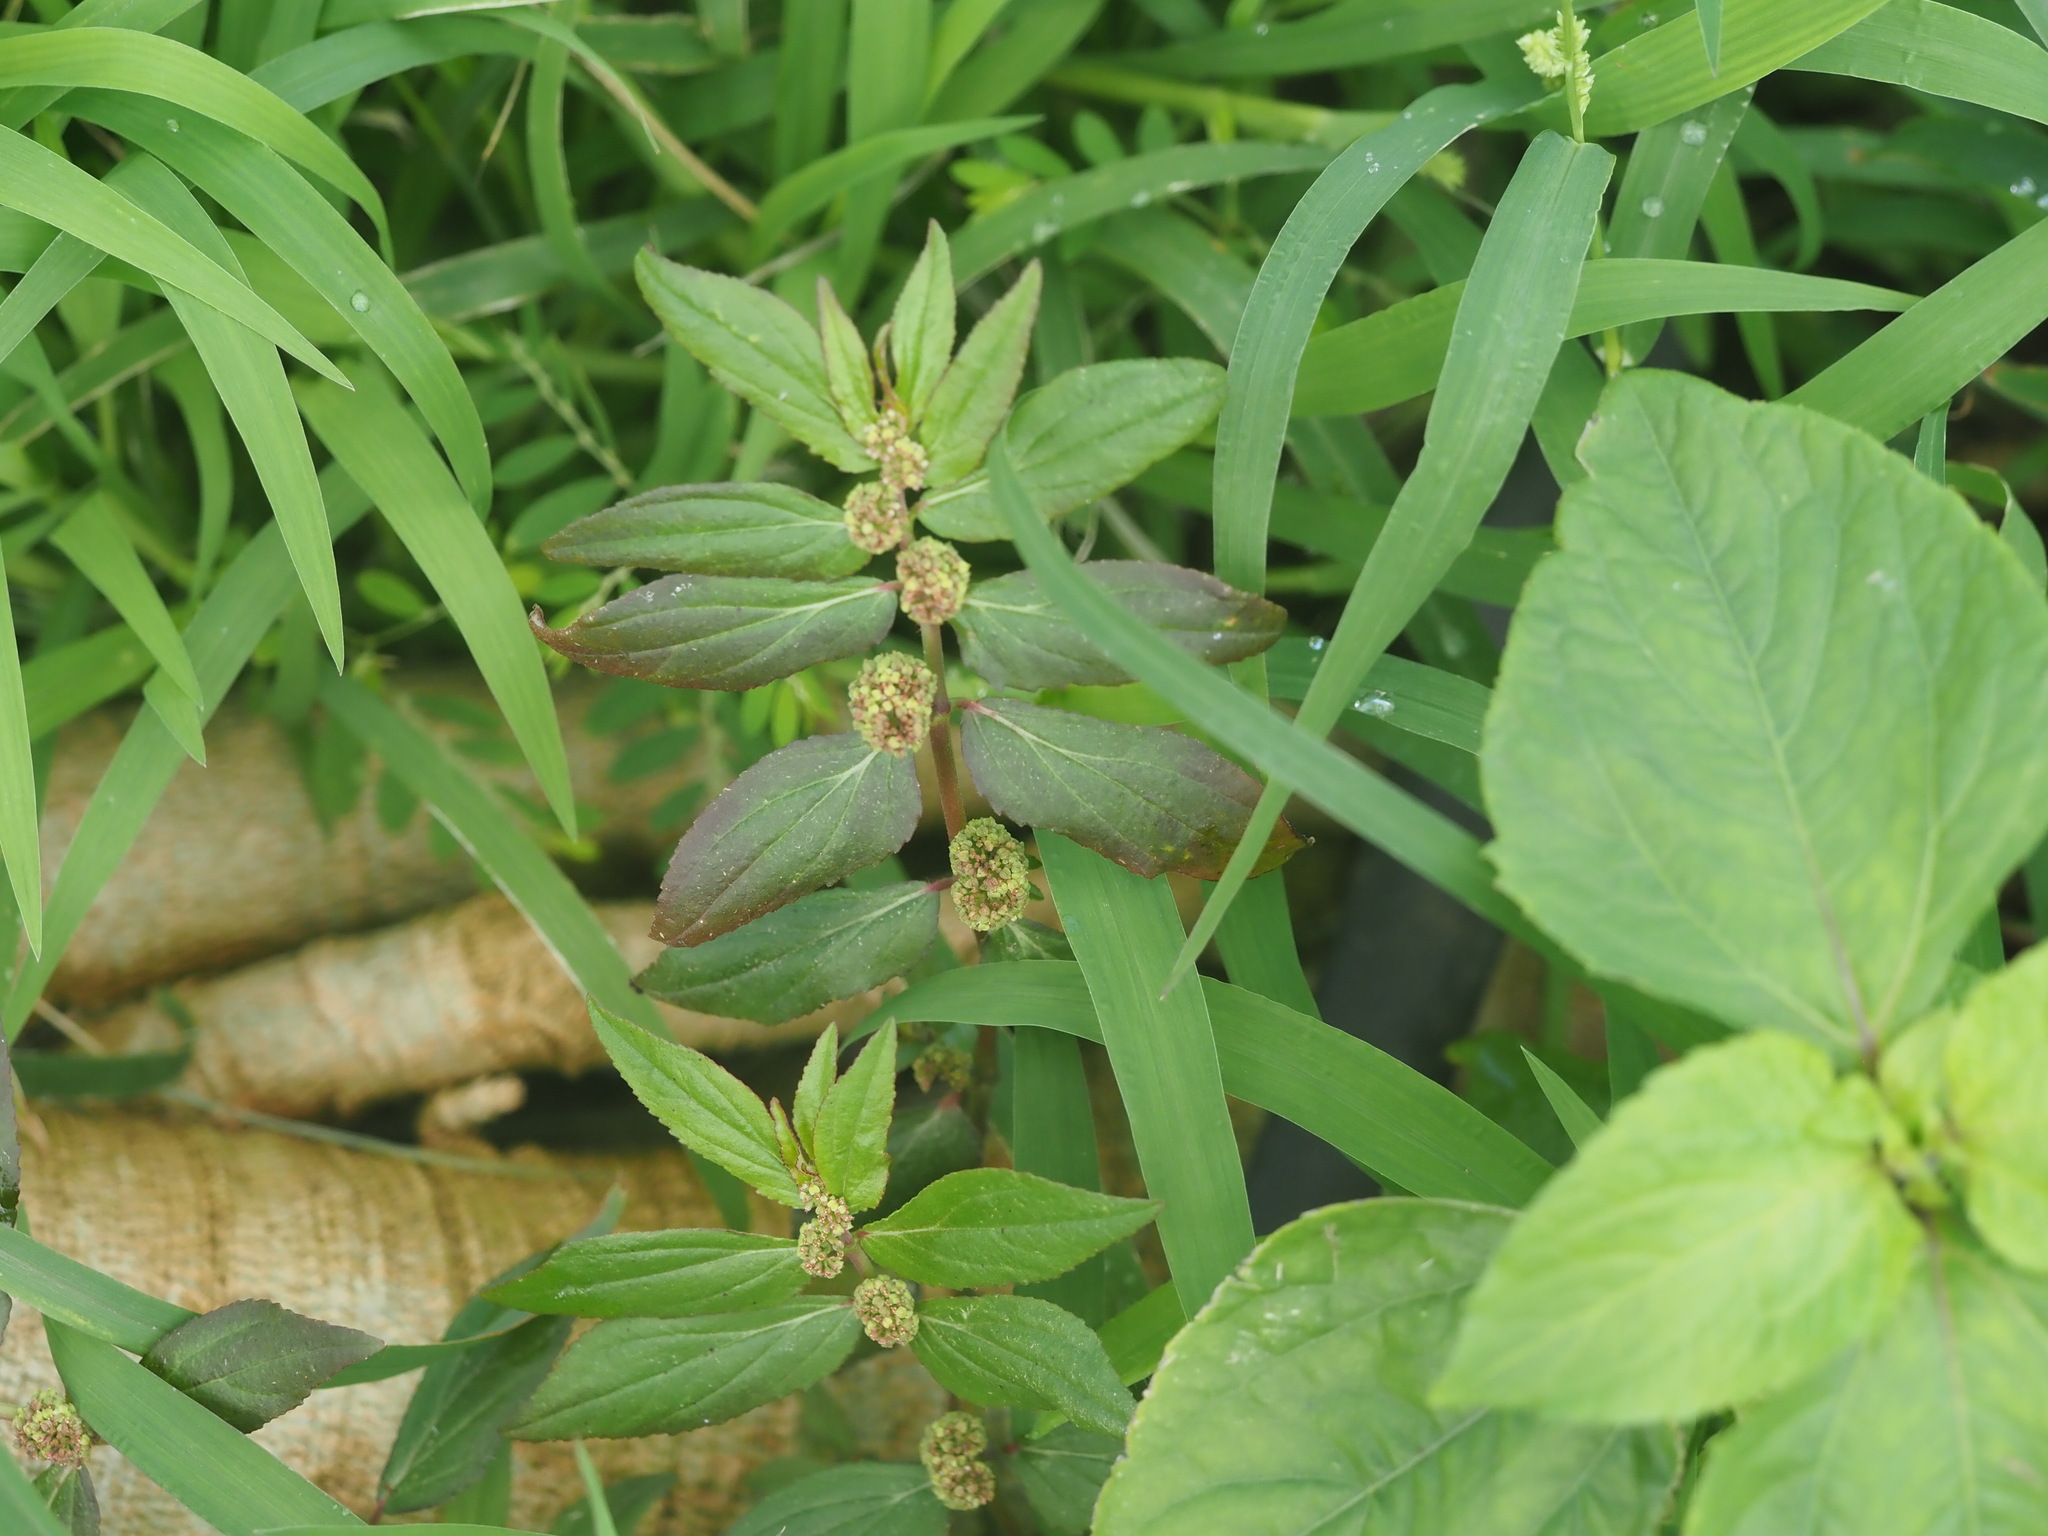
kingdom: Plantae
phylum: Tracheophyta
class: Magnoliopsida
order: Malpighiales
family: Euphorbiaceae
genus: Euphorbia
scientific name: Euphorbia hirta
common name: Pillpod sandmat
